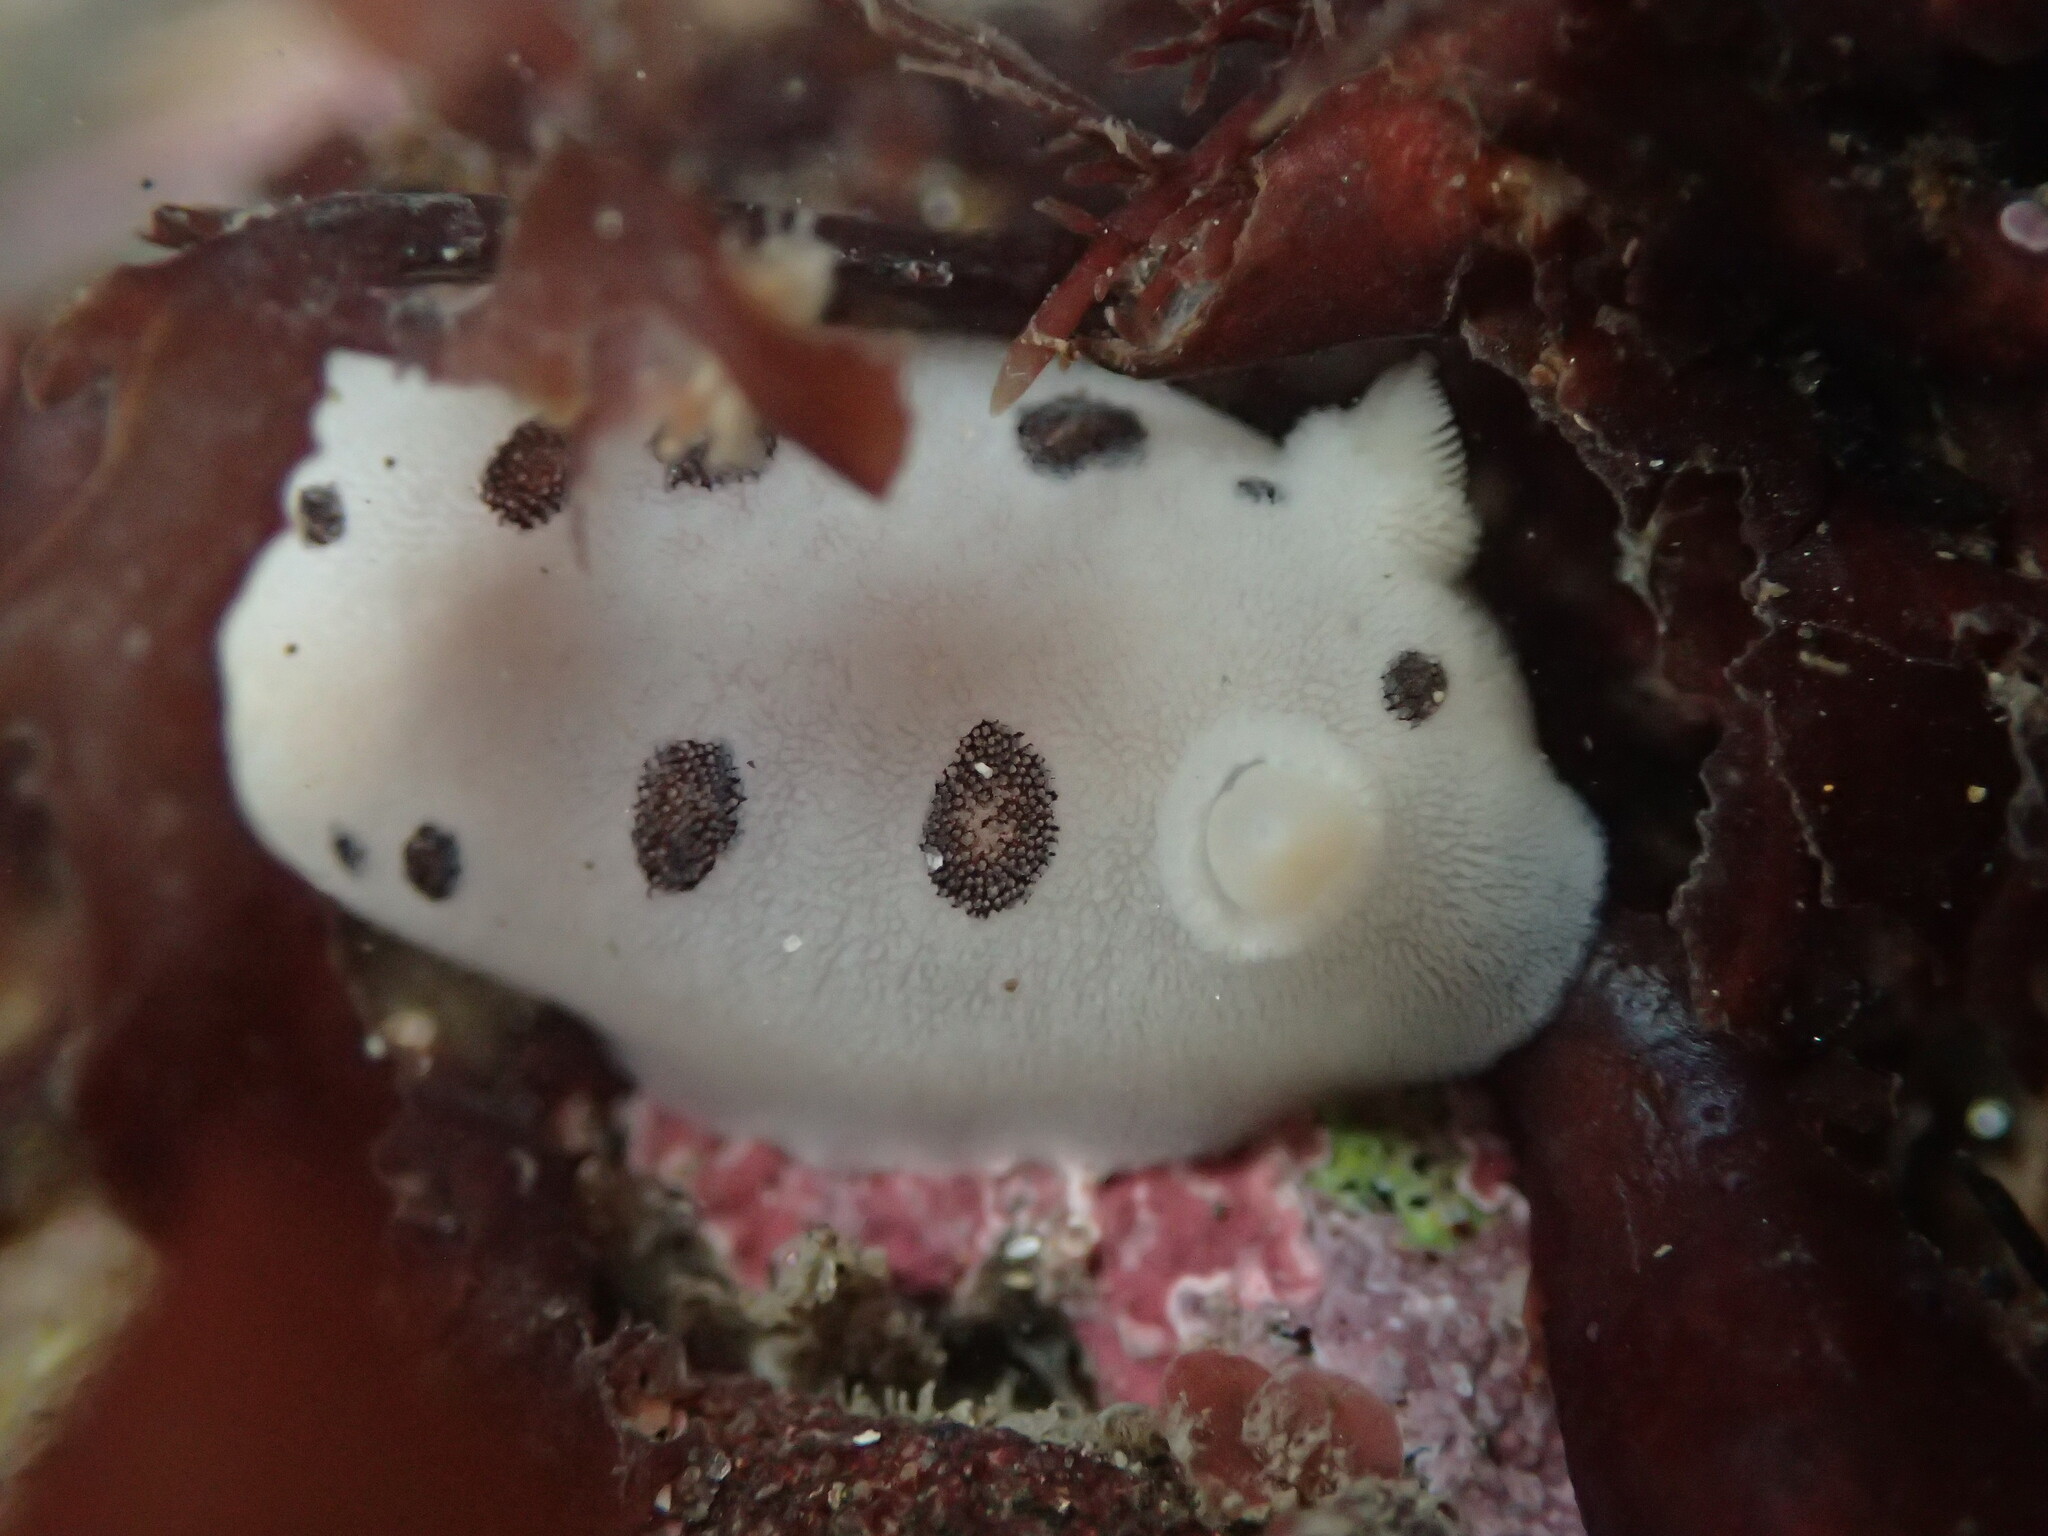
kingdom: Animalia
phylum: Mollusca
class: Gastropoda
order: Nudibranchia
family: Discodorididae
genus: Diaulula
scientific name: Diaulula sandiegensis
